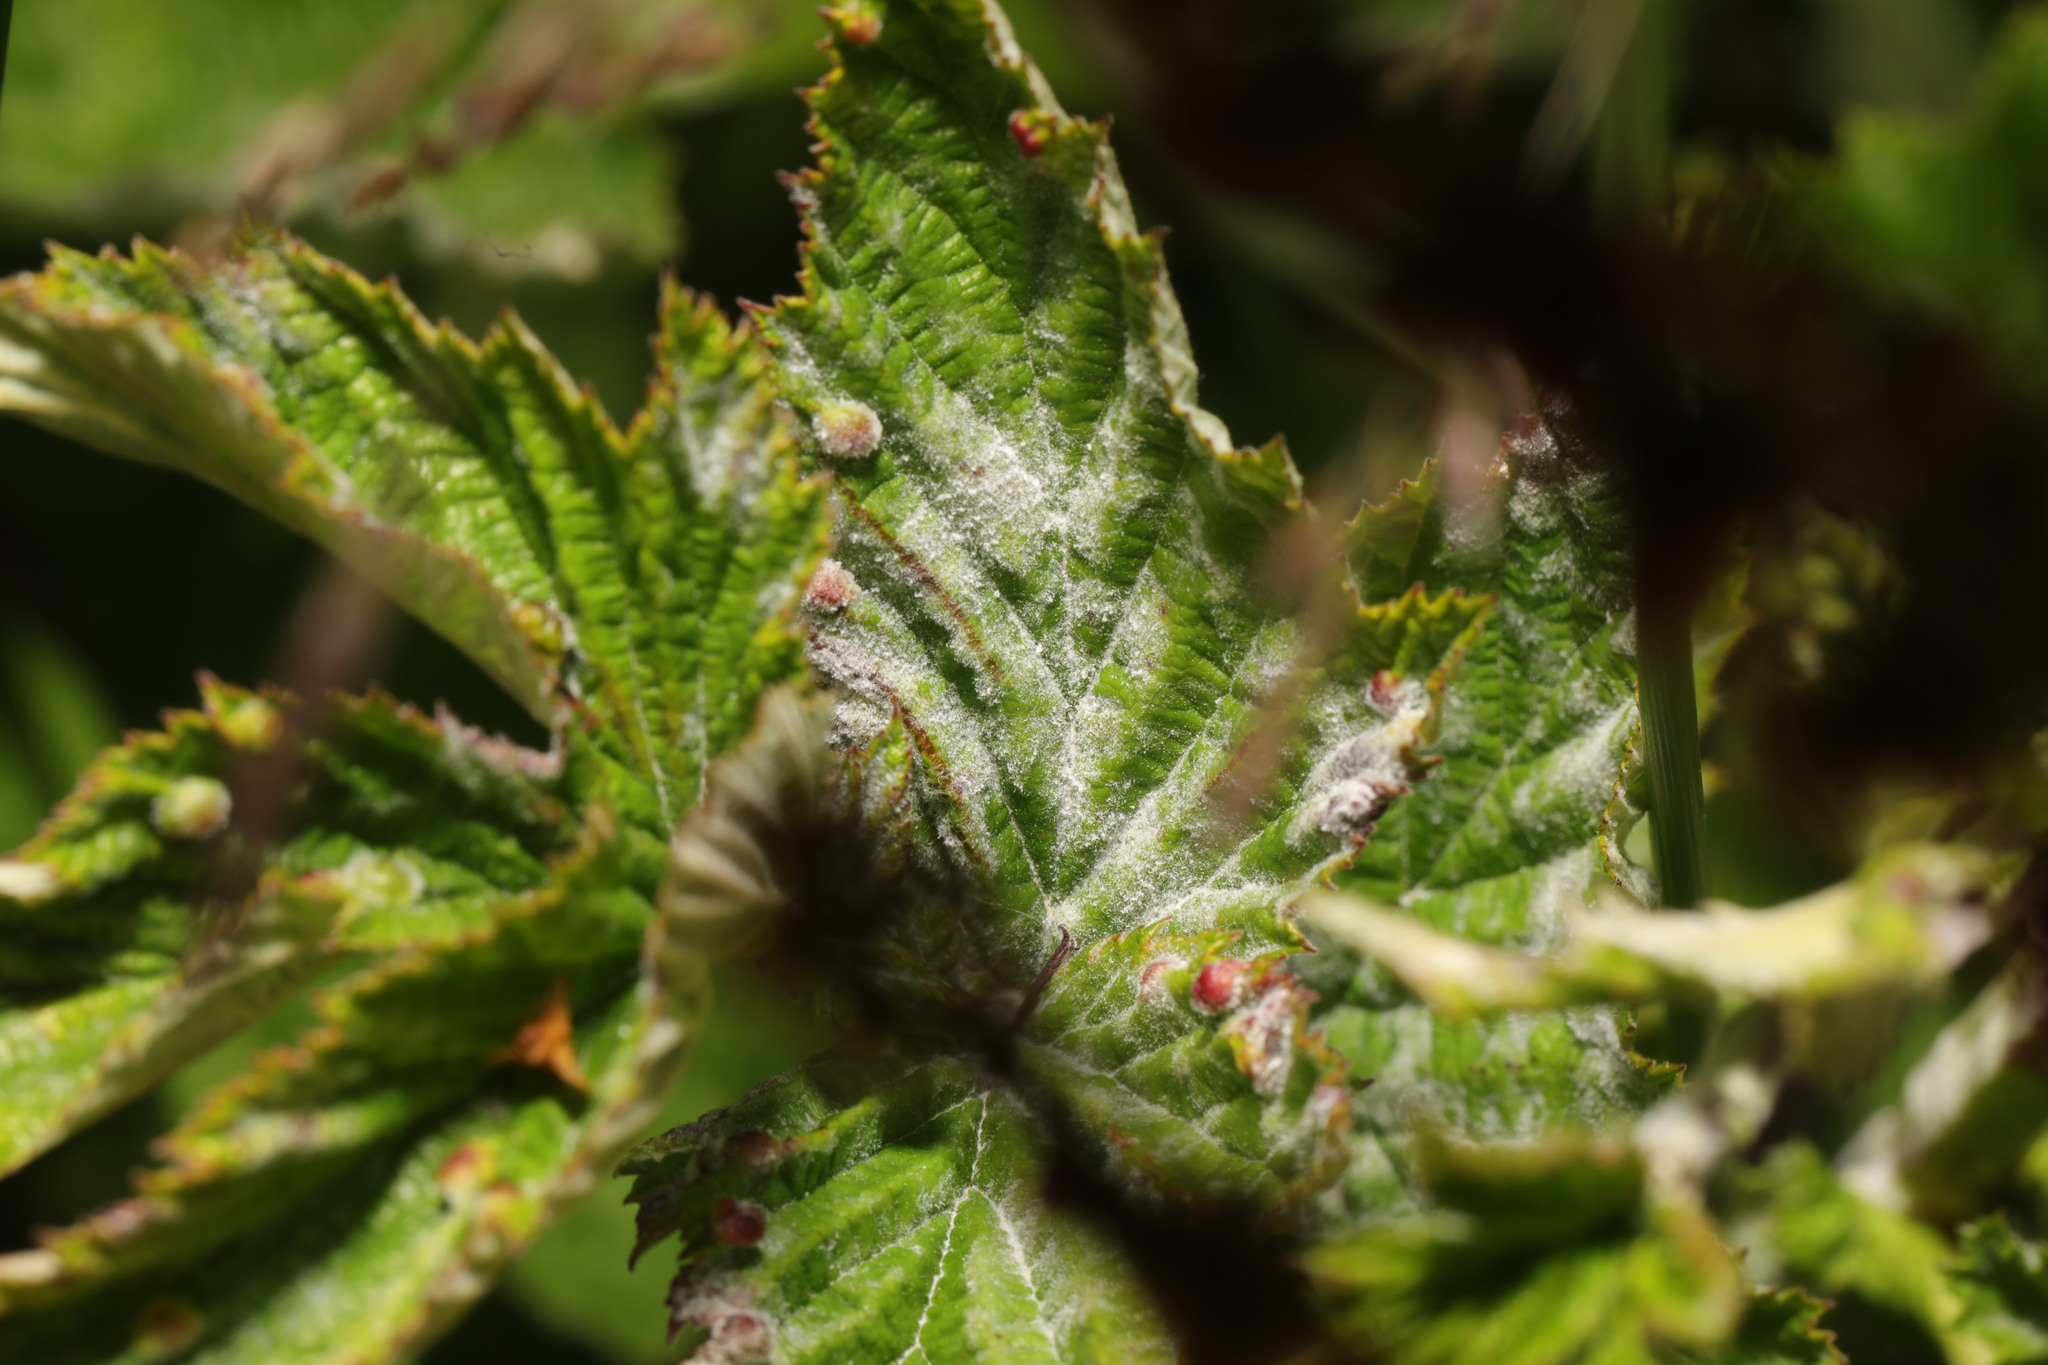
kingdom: Fungi
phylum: Ascomycota
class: Leotiomycetes
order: Helotiales
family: Erysiphaceae
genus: Podosphaera
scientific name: Podosphaera filipendulae
